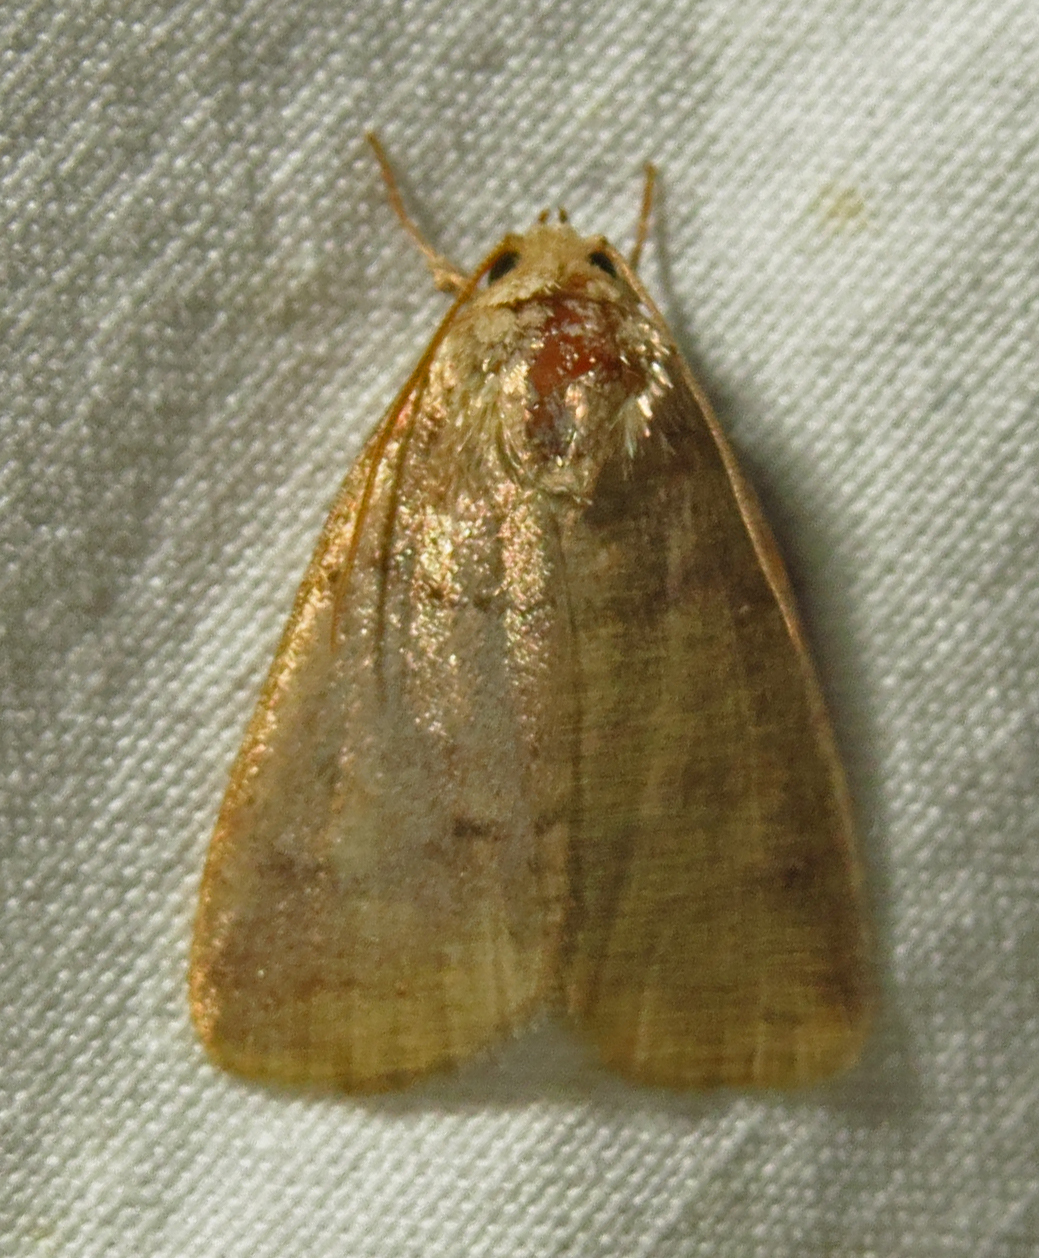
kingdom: Animalia
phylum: Arthropoda
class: Insecta
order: Lepidoptera
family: Noctuidae
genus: Athetis
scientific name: Athetis tarda
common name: Slowpoke moth
